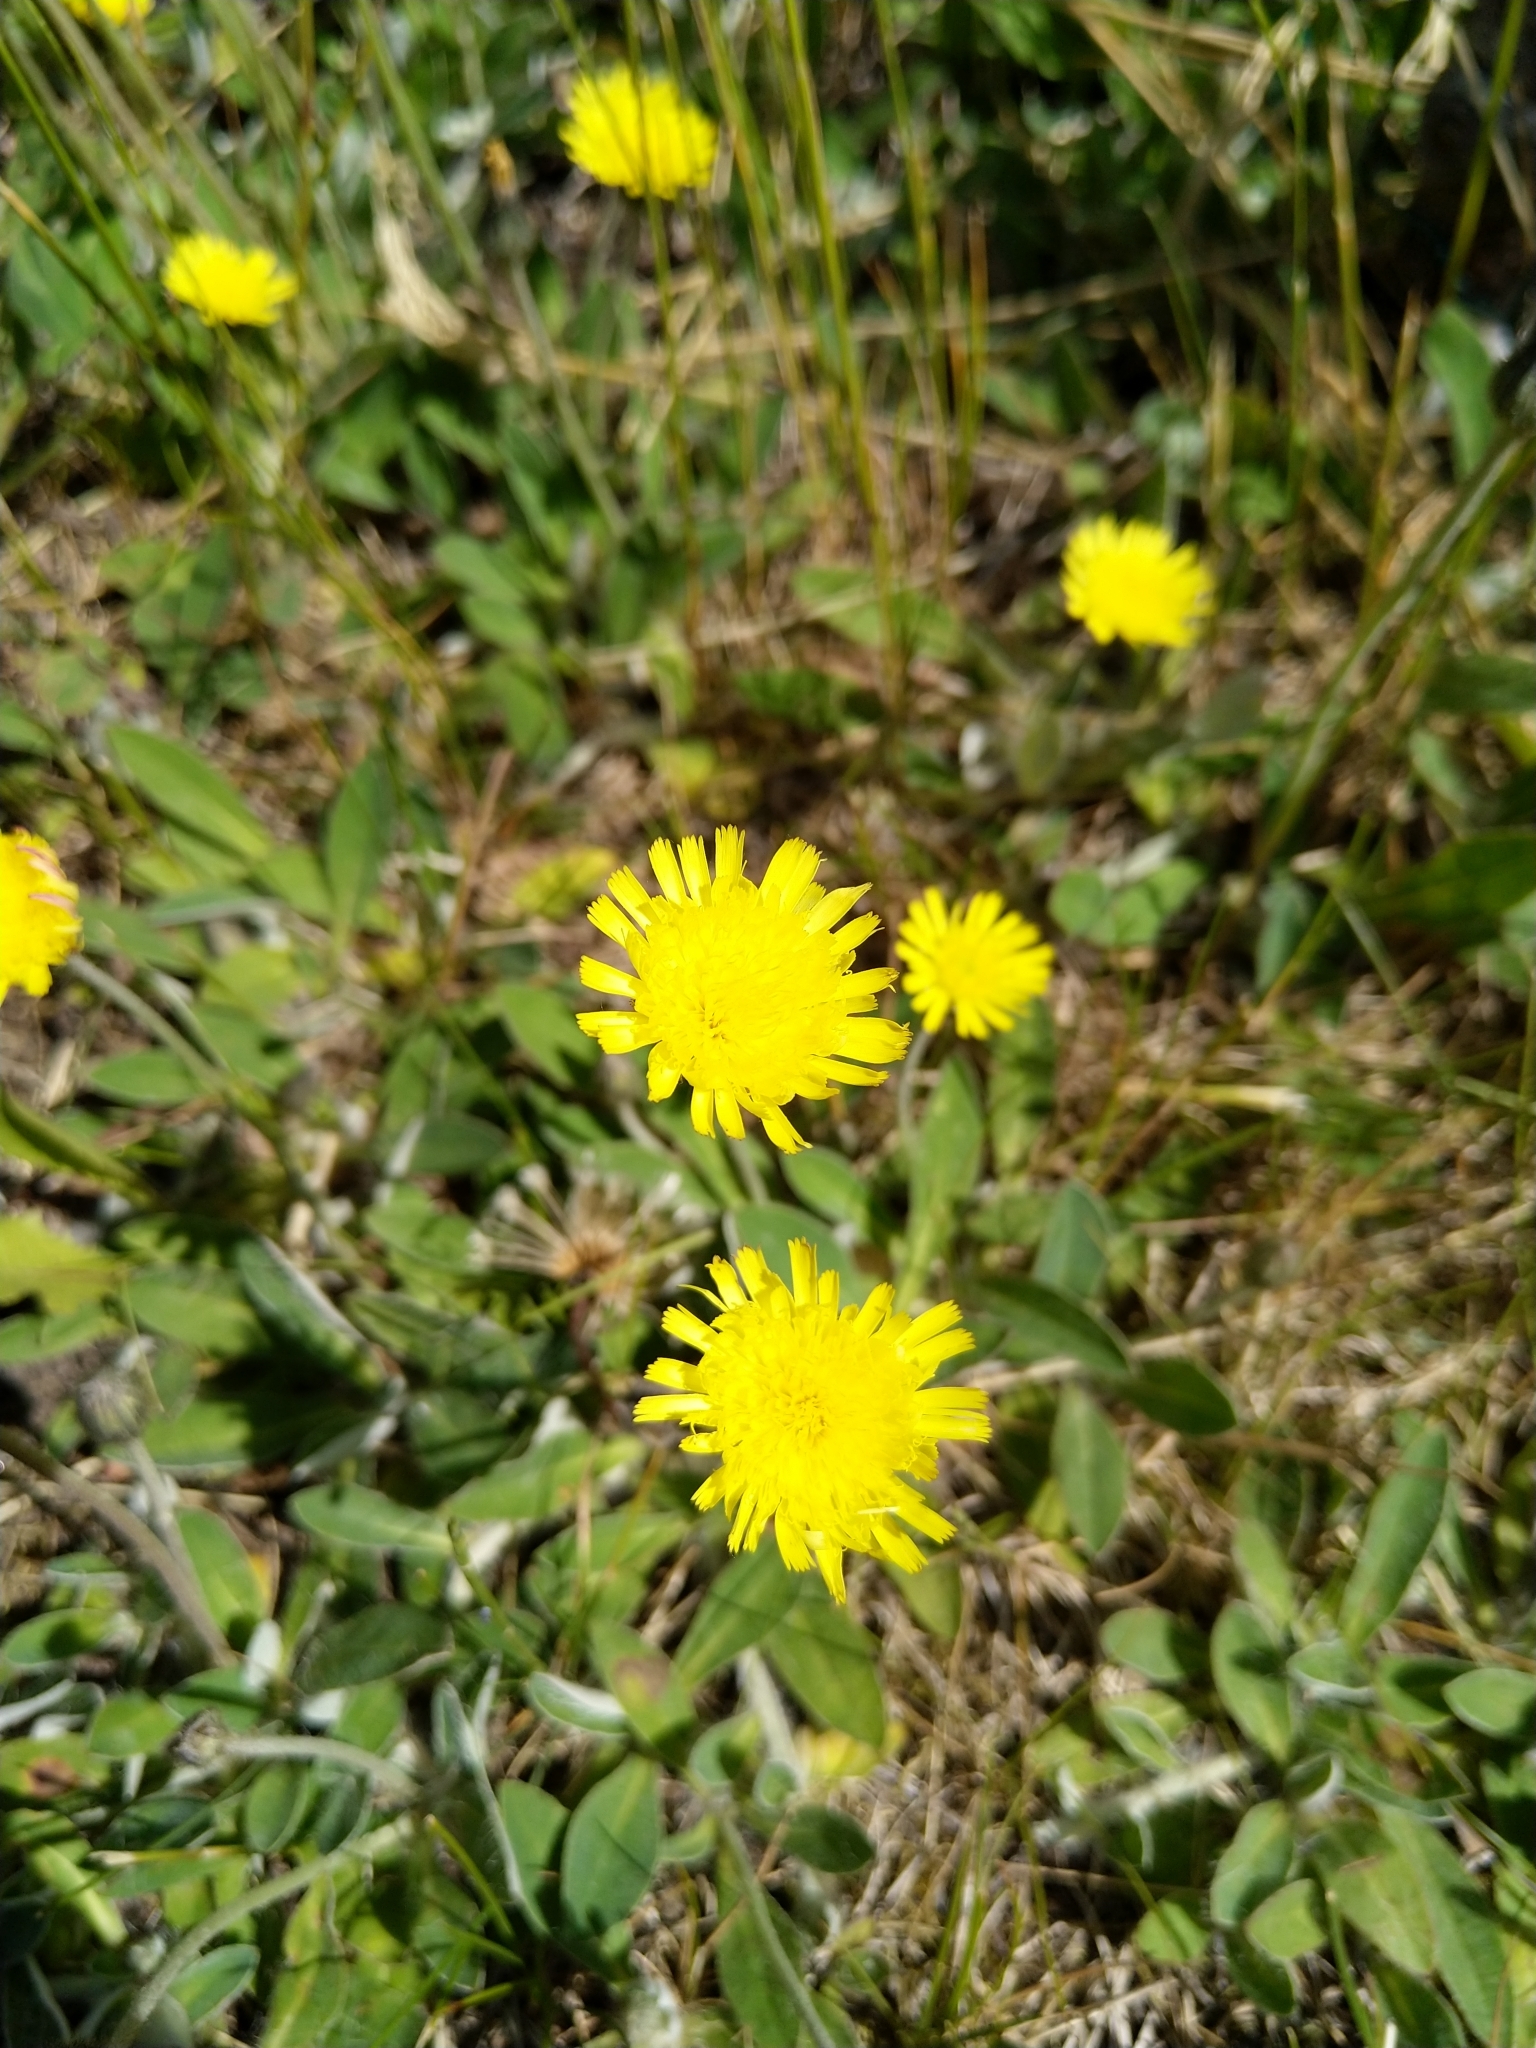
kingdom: Plantae
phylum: Tracheophyta
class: Magnoliopsida
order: Asterales
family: Asteraceae
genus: Pilosella
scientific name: Pilosella officinarum
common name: Mouse-ear hawkweed
